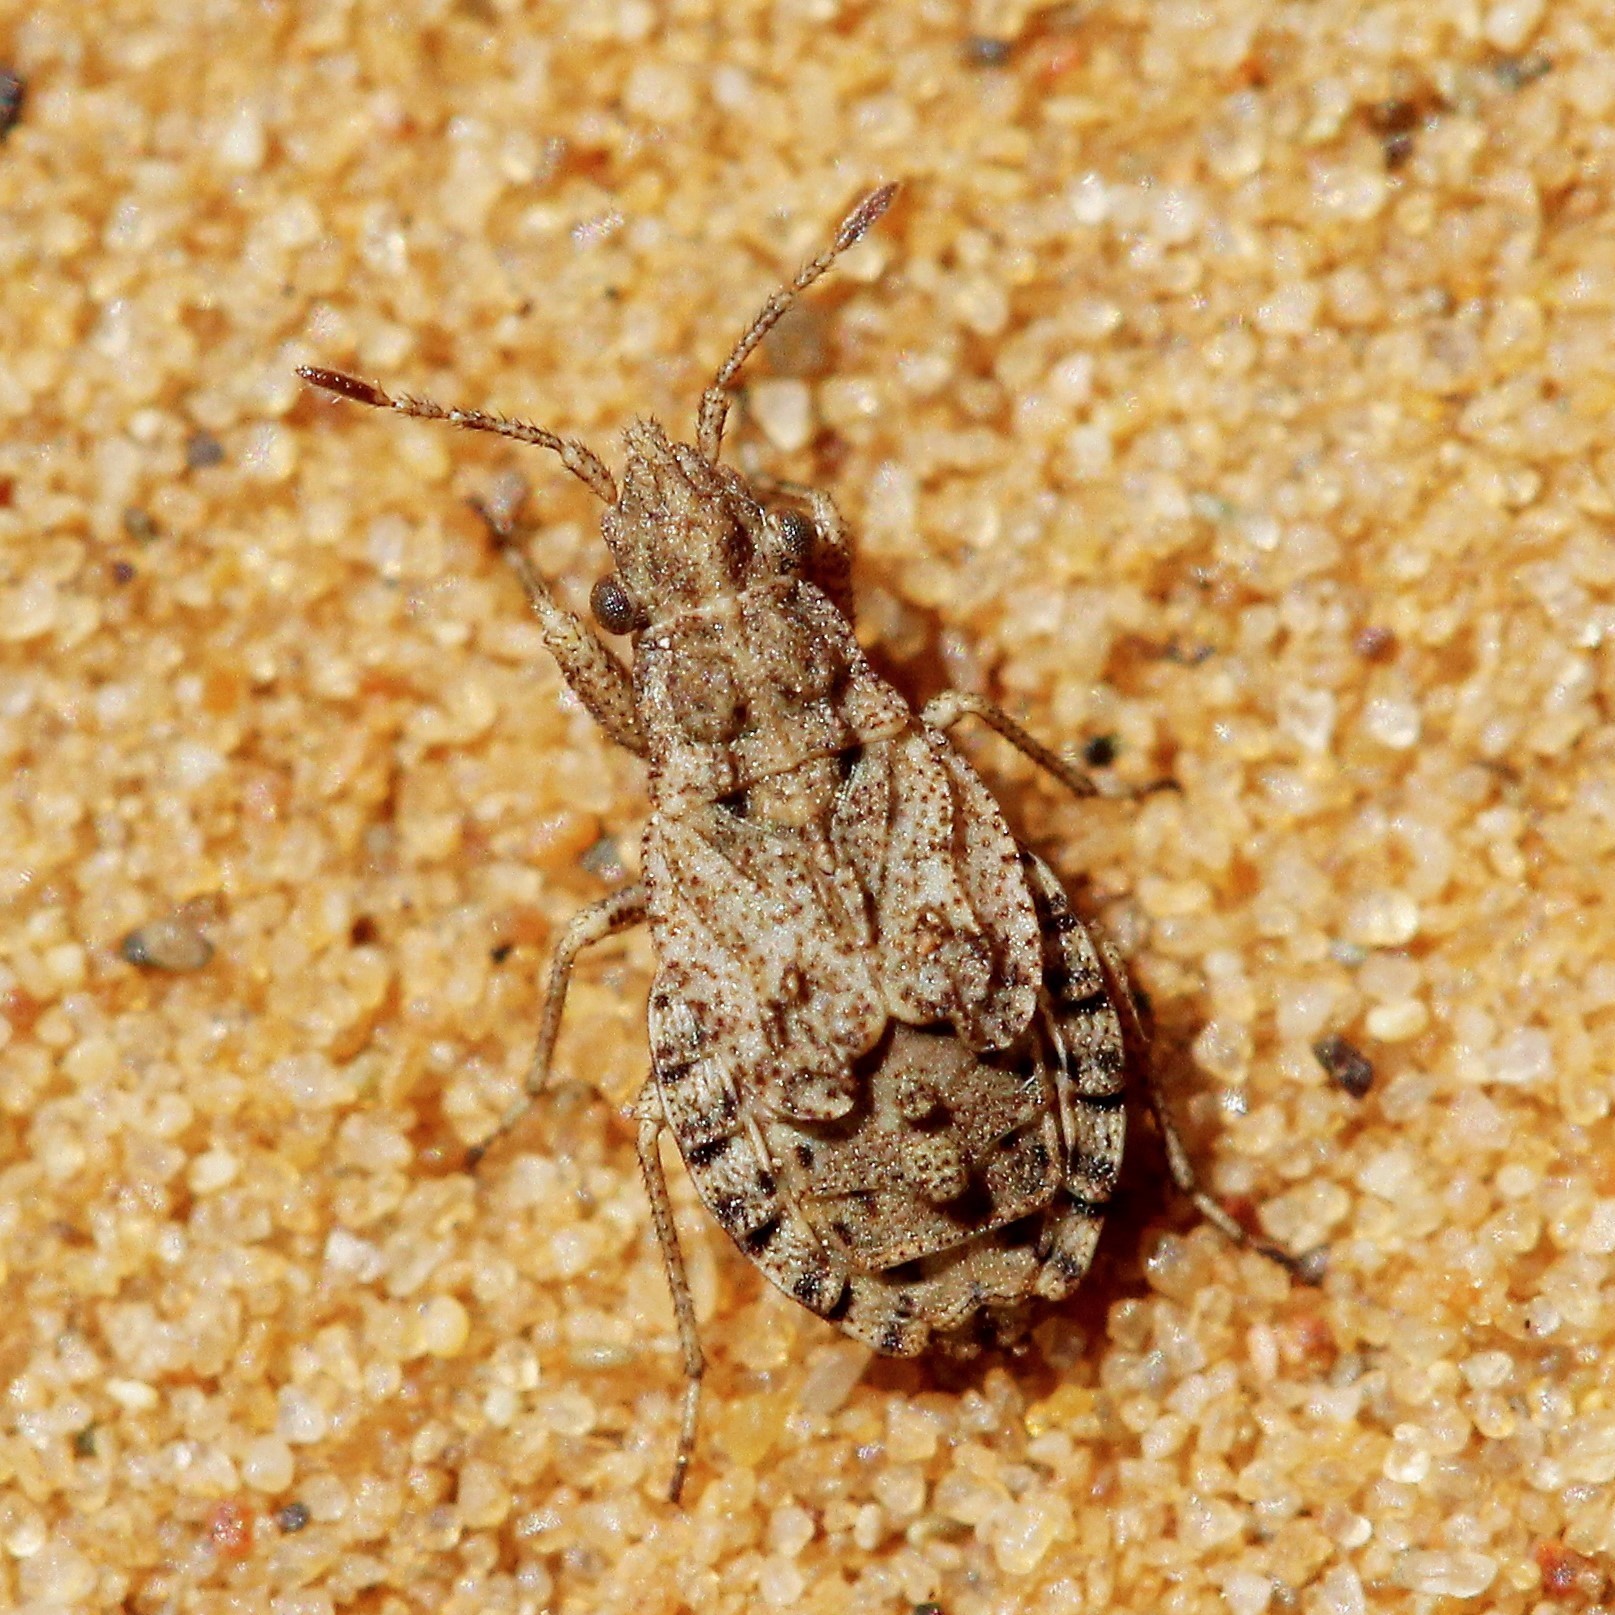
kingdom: Animalia
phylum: Arthropoda
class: Insecta
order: Hemiptera
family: Rhyparochromidae
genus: Diomphalus
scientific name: Diomphalus hispidulus
